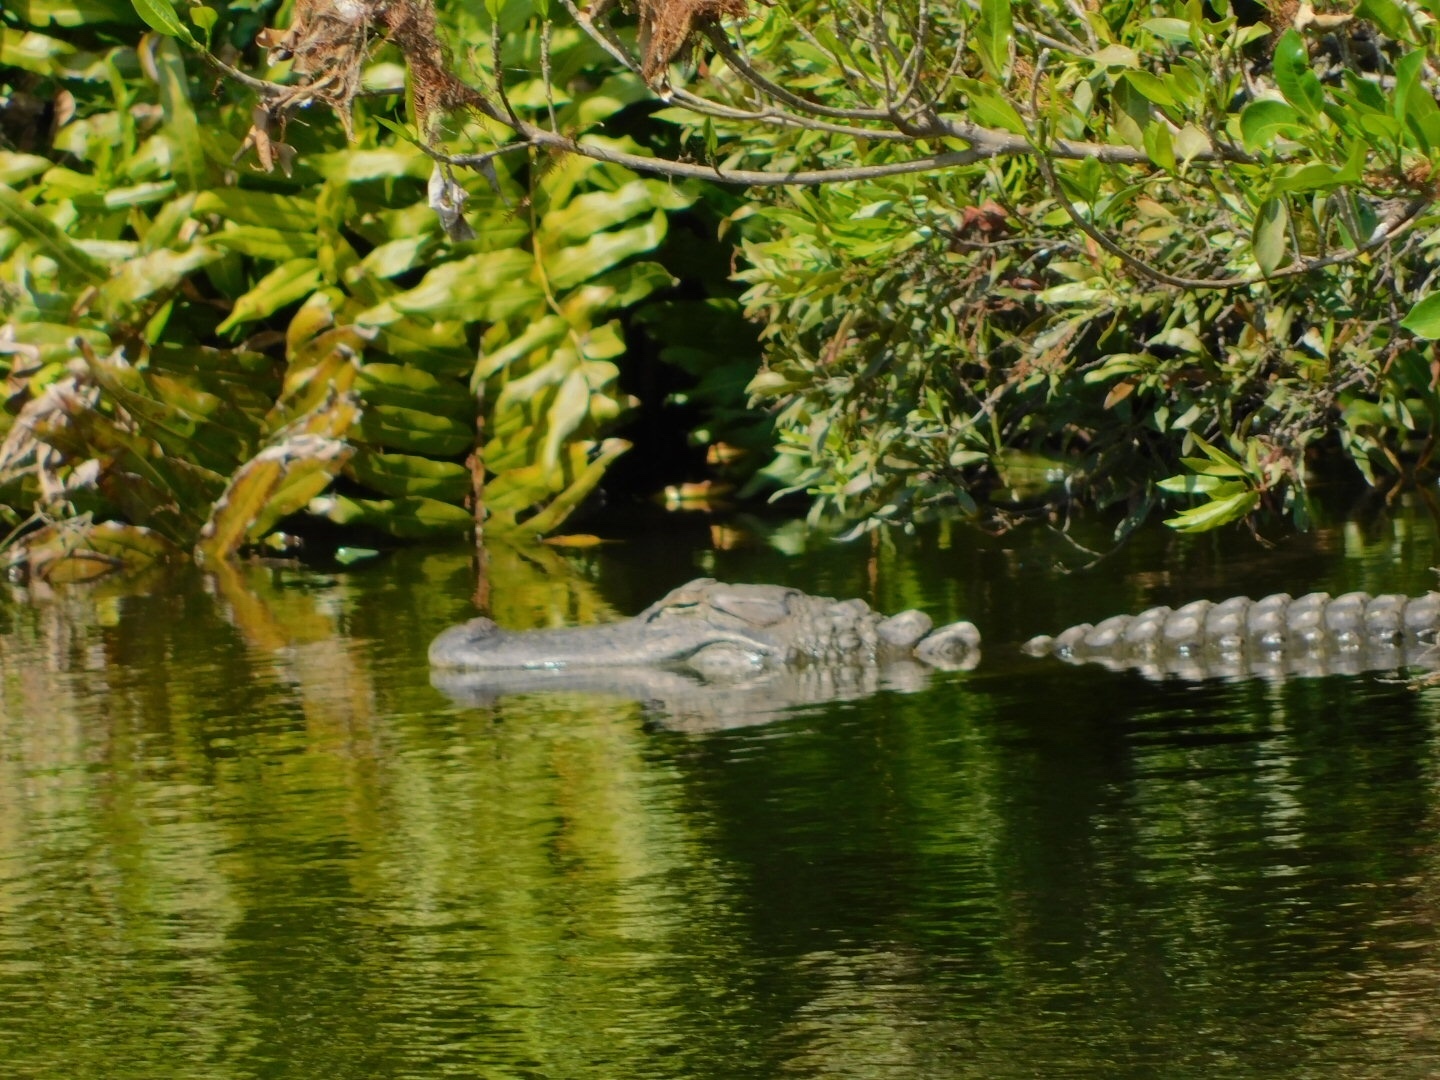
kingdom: Animalia
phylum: Chordata
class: Crocodylia
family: Alligatoridae
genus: Alligator
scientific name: Alligator mississippiensis
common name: American alligator
